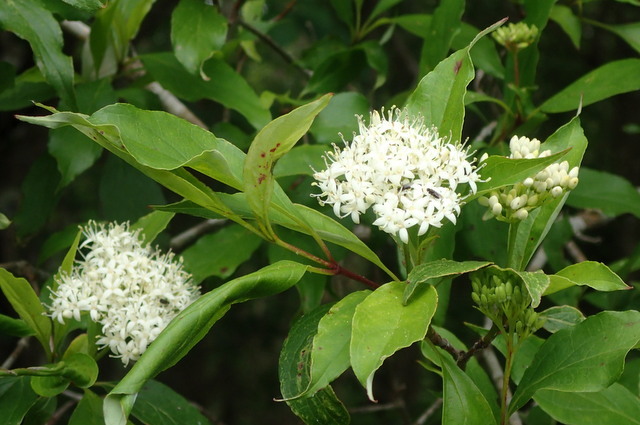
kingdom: Plantae
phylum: Tracheophyta
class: Magnoliopsida
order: Cornales
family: Cornaceae
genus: Cornus
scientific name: Cornus foemina
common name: Swamp dogwood
